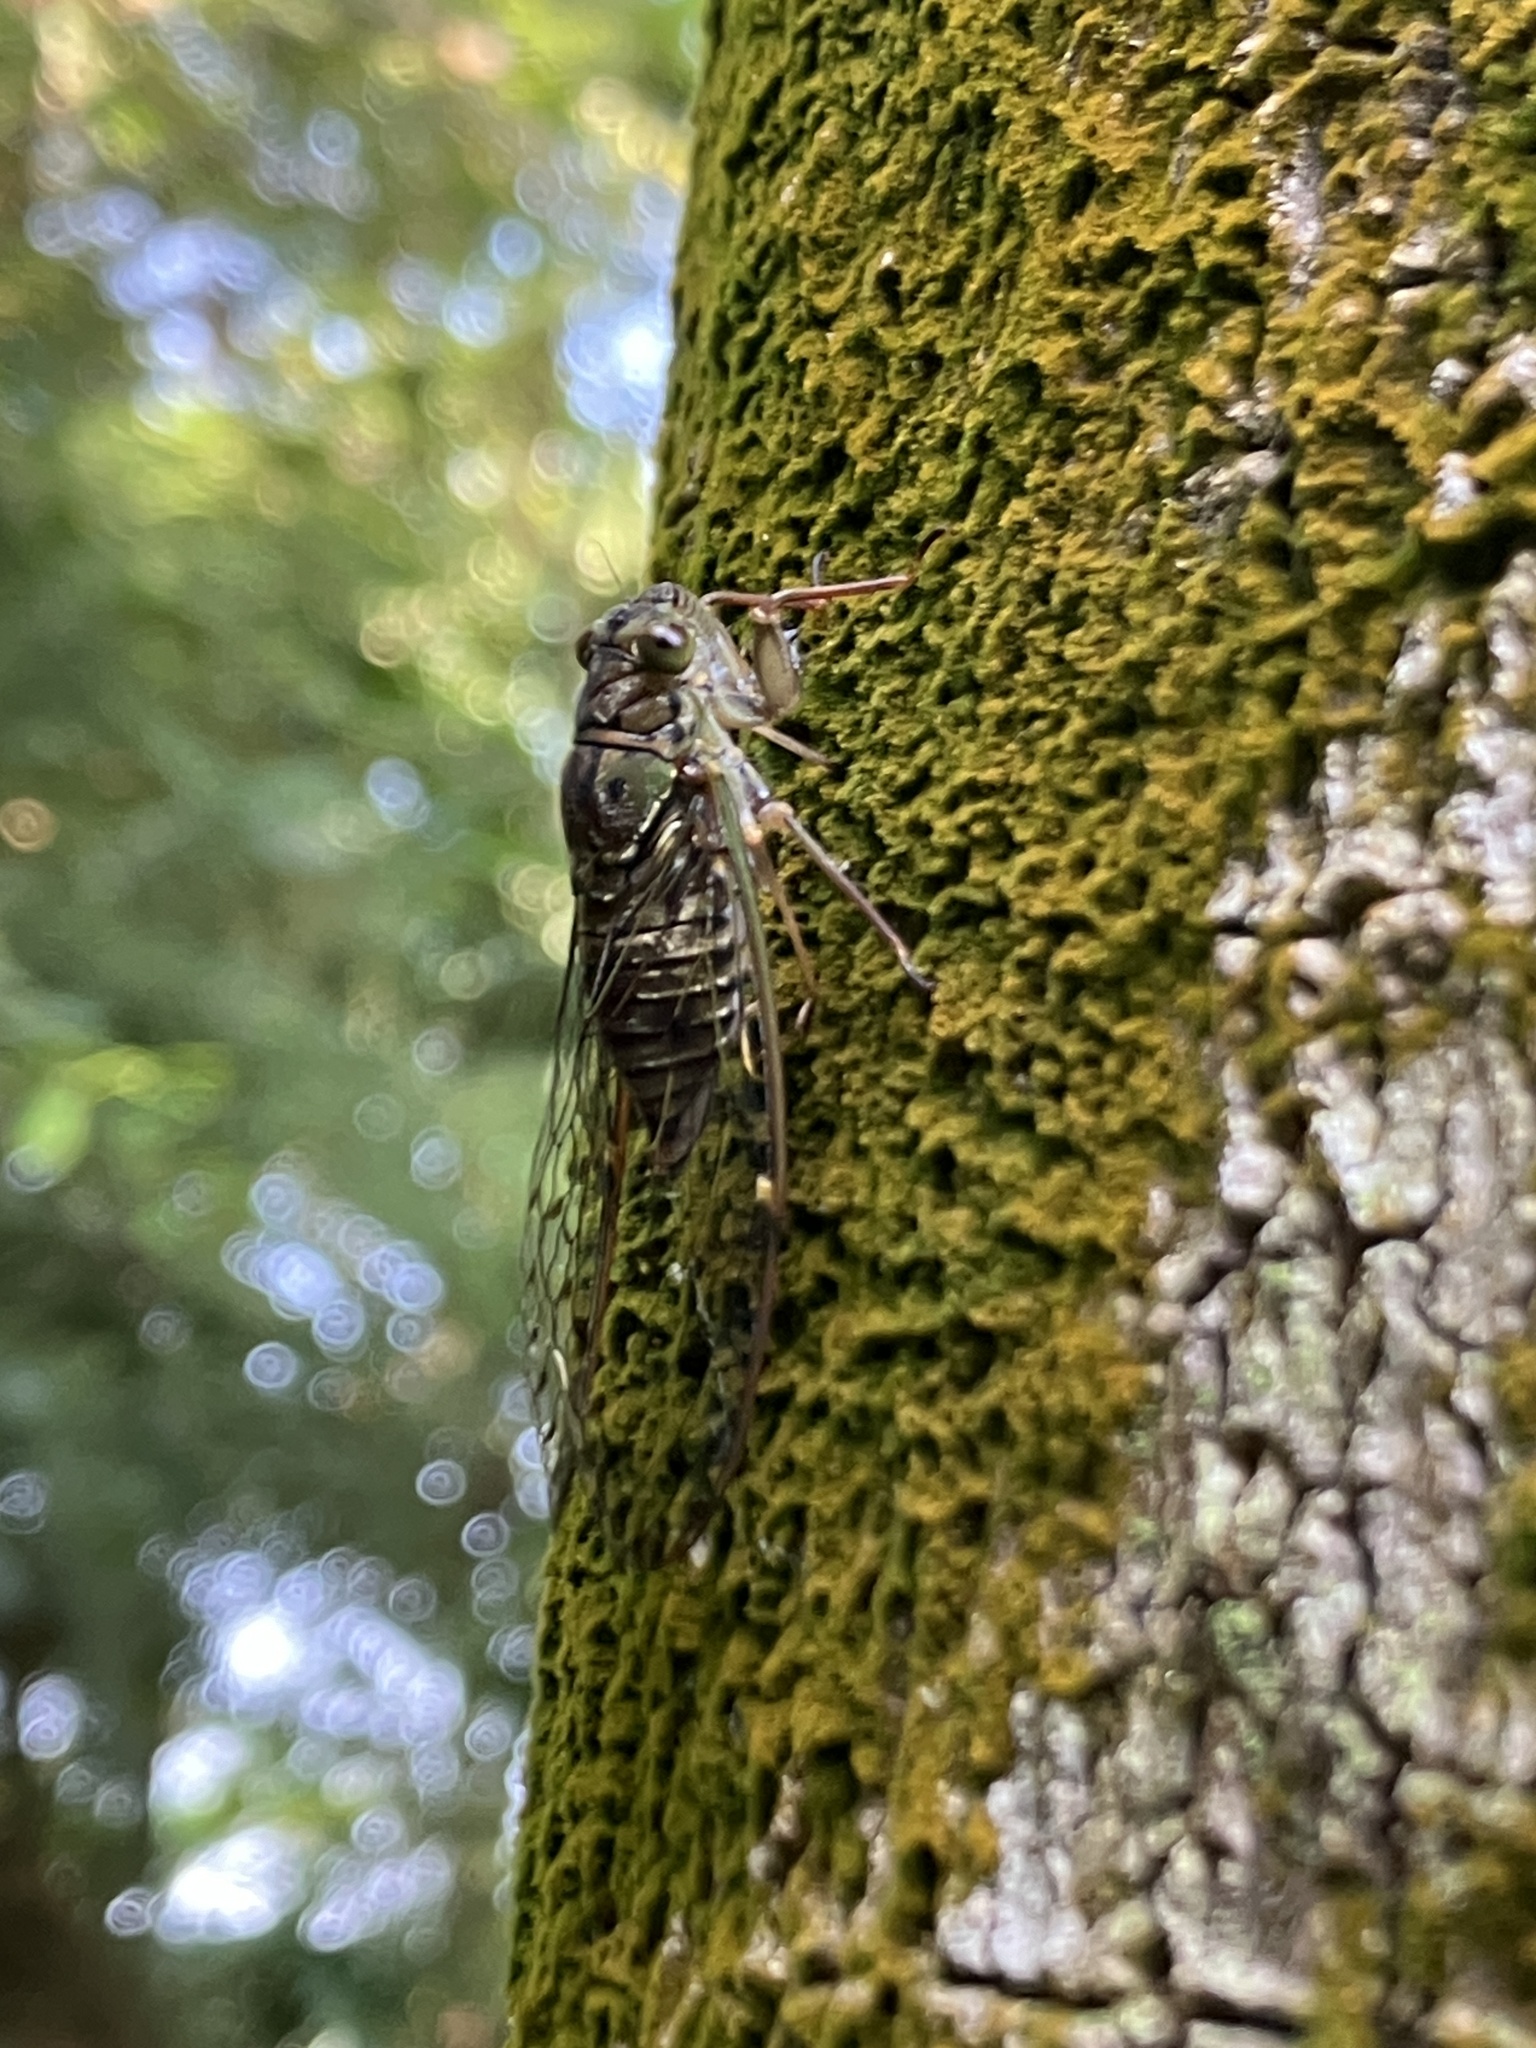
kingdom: Animalia
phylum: Arthropoda
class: Insecta
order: Hemiptera
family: Cicadidae
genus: Formosemia
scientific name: Formosemia apicalis
